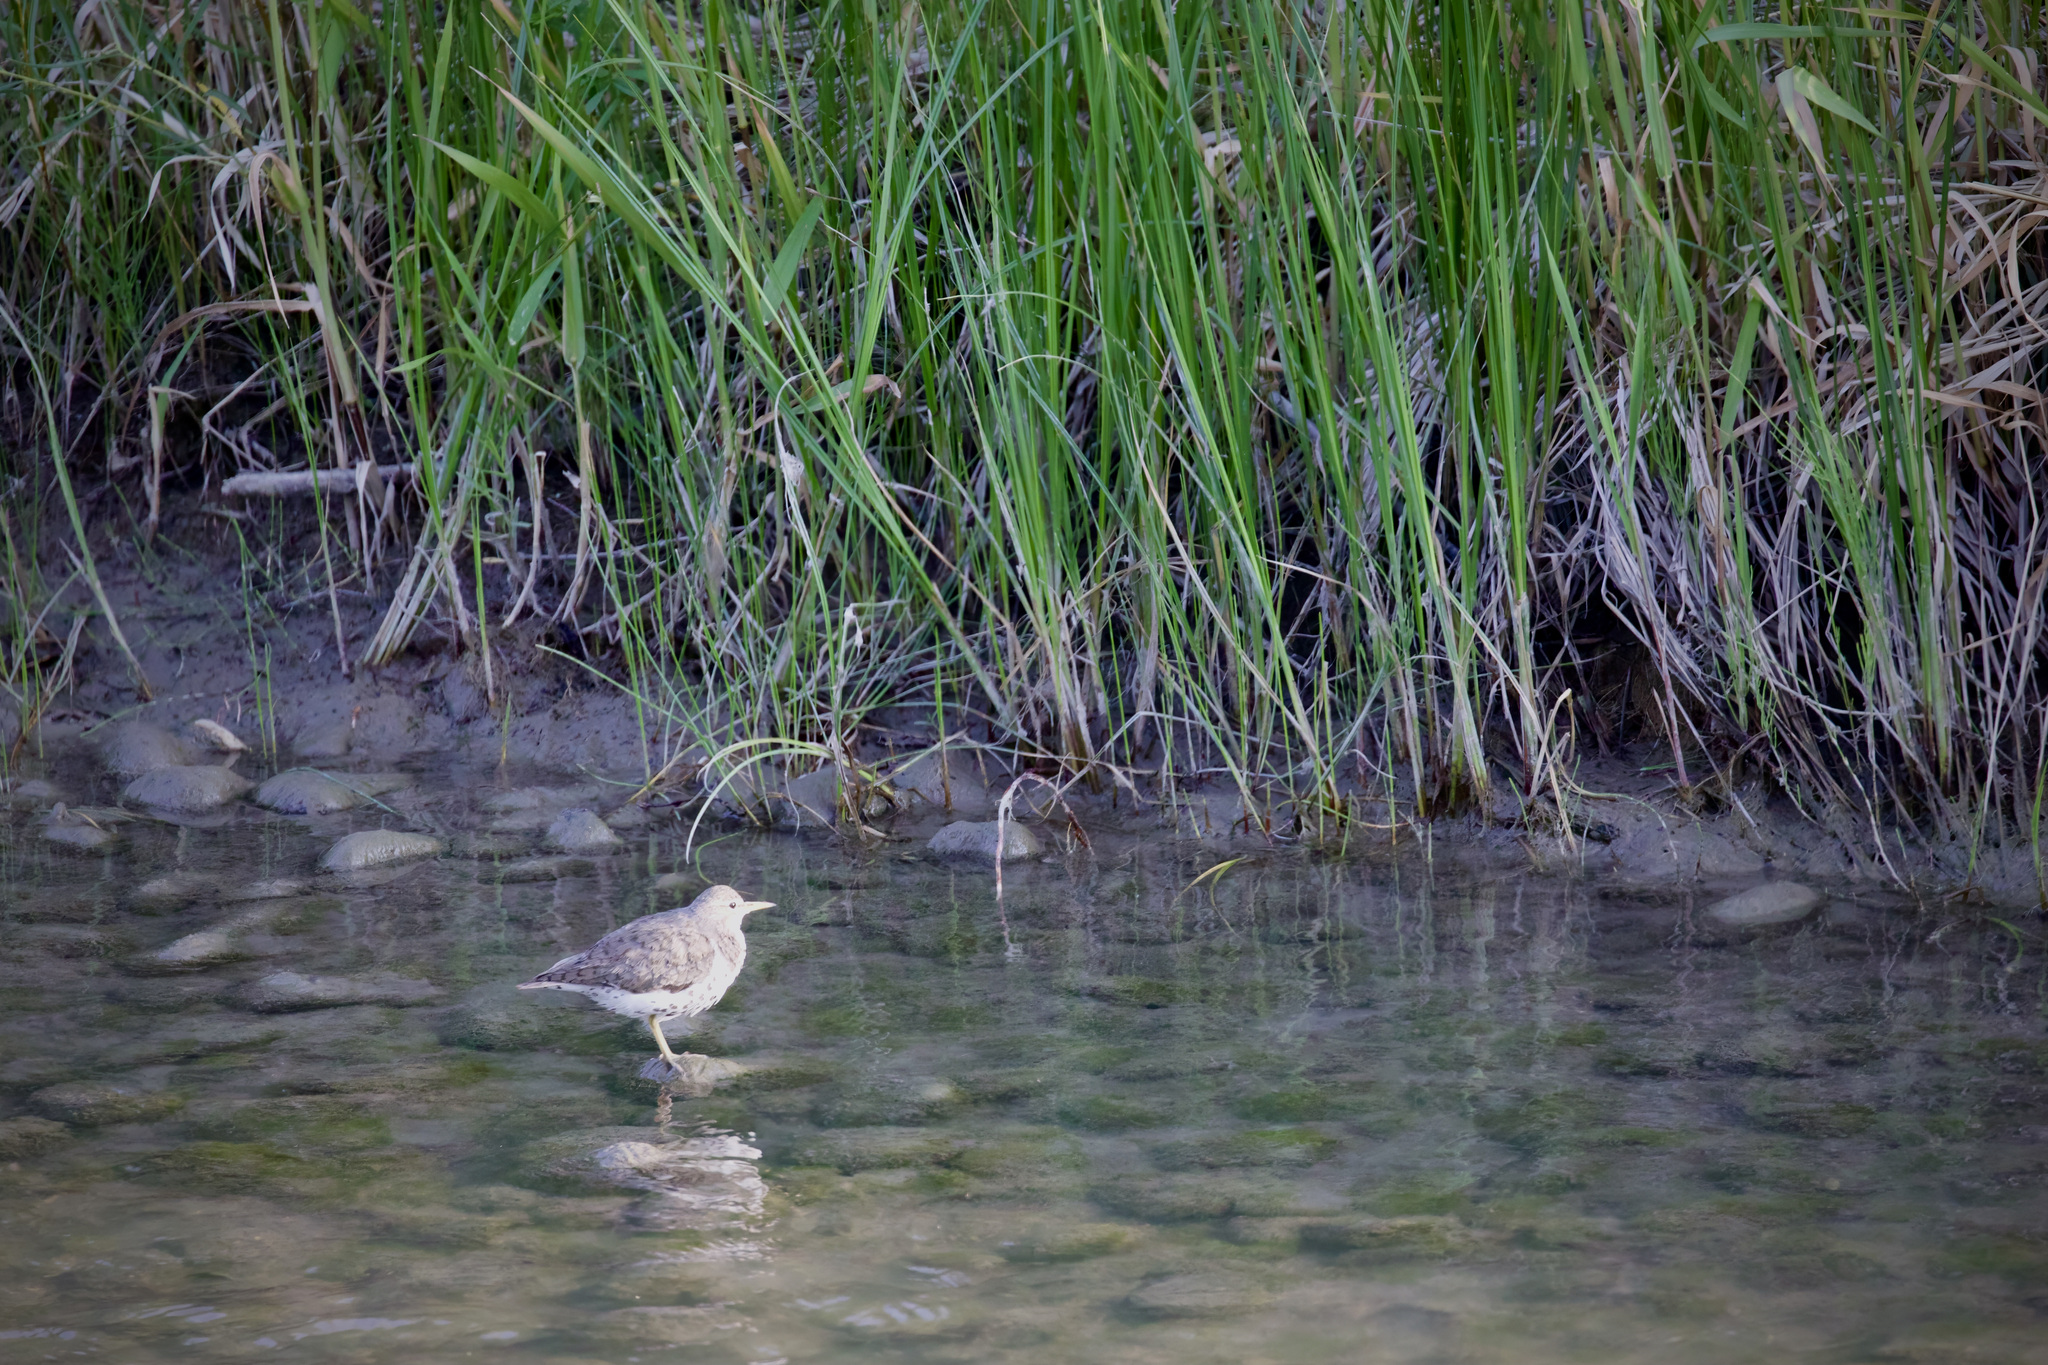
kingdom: Animalia
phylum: Chordata
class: Aves
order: Charadriiformes
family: Scolopacidae
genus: Actitis
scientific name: Actitis macularius
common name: Spotted sandpiper
